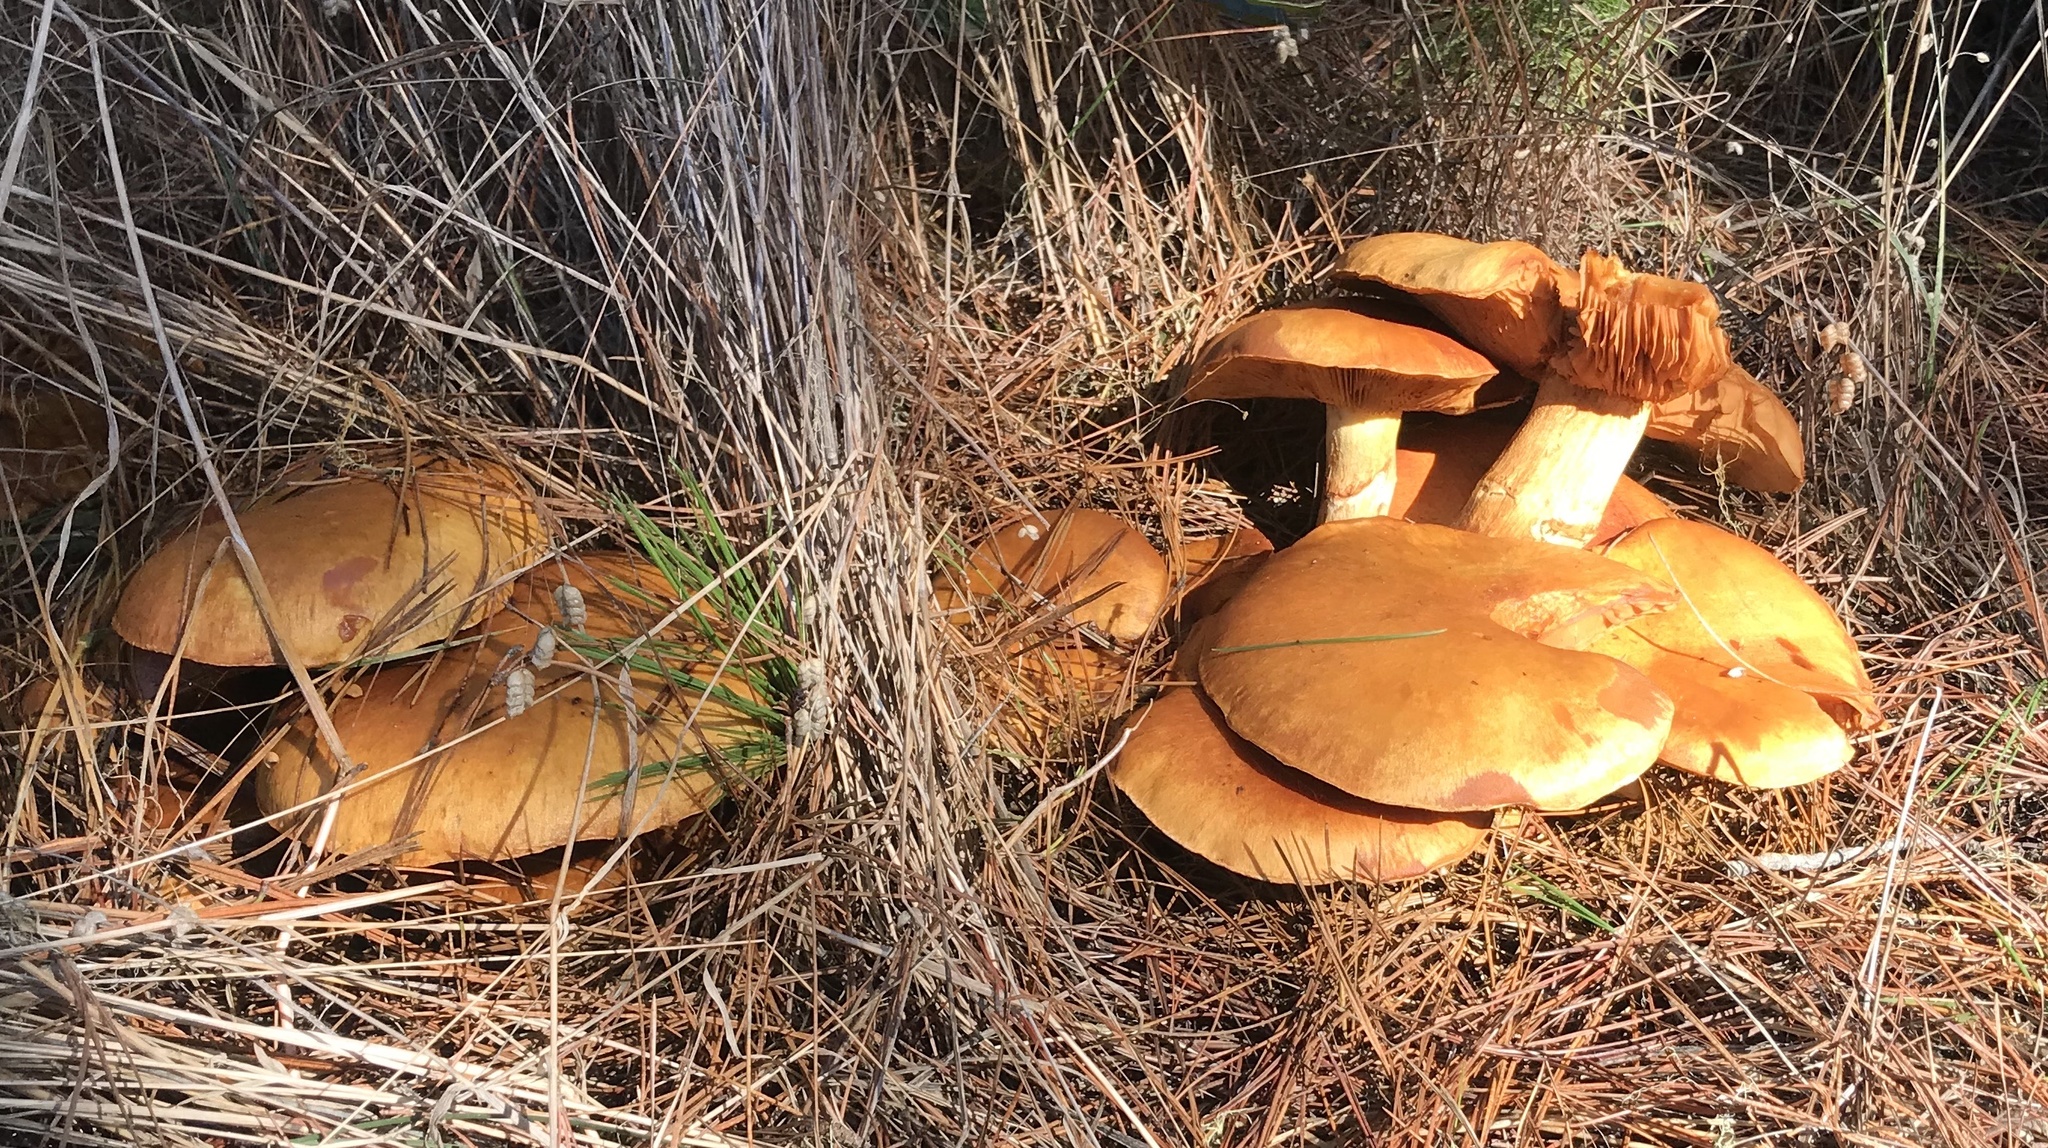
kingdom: Fungi
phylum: Basidiomycota
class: Agaricomycetes
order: Agaricales
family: Hymenogastraceae
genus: Gymnopilus
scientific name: Gymnopilus ventricosus
